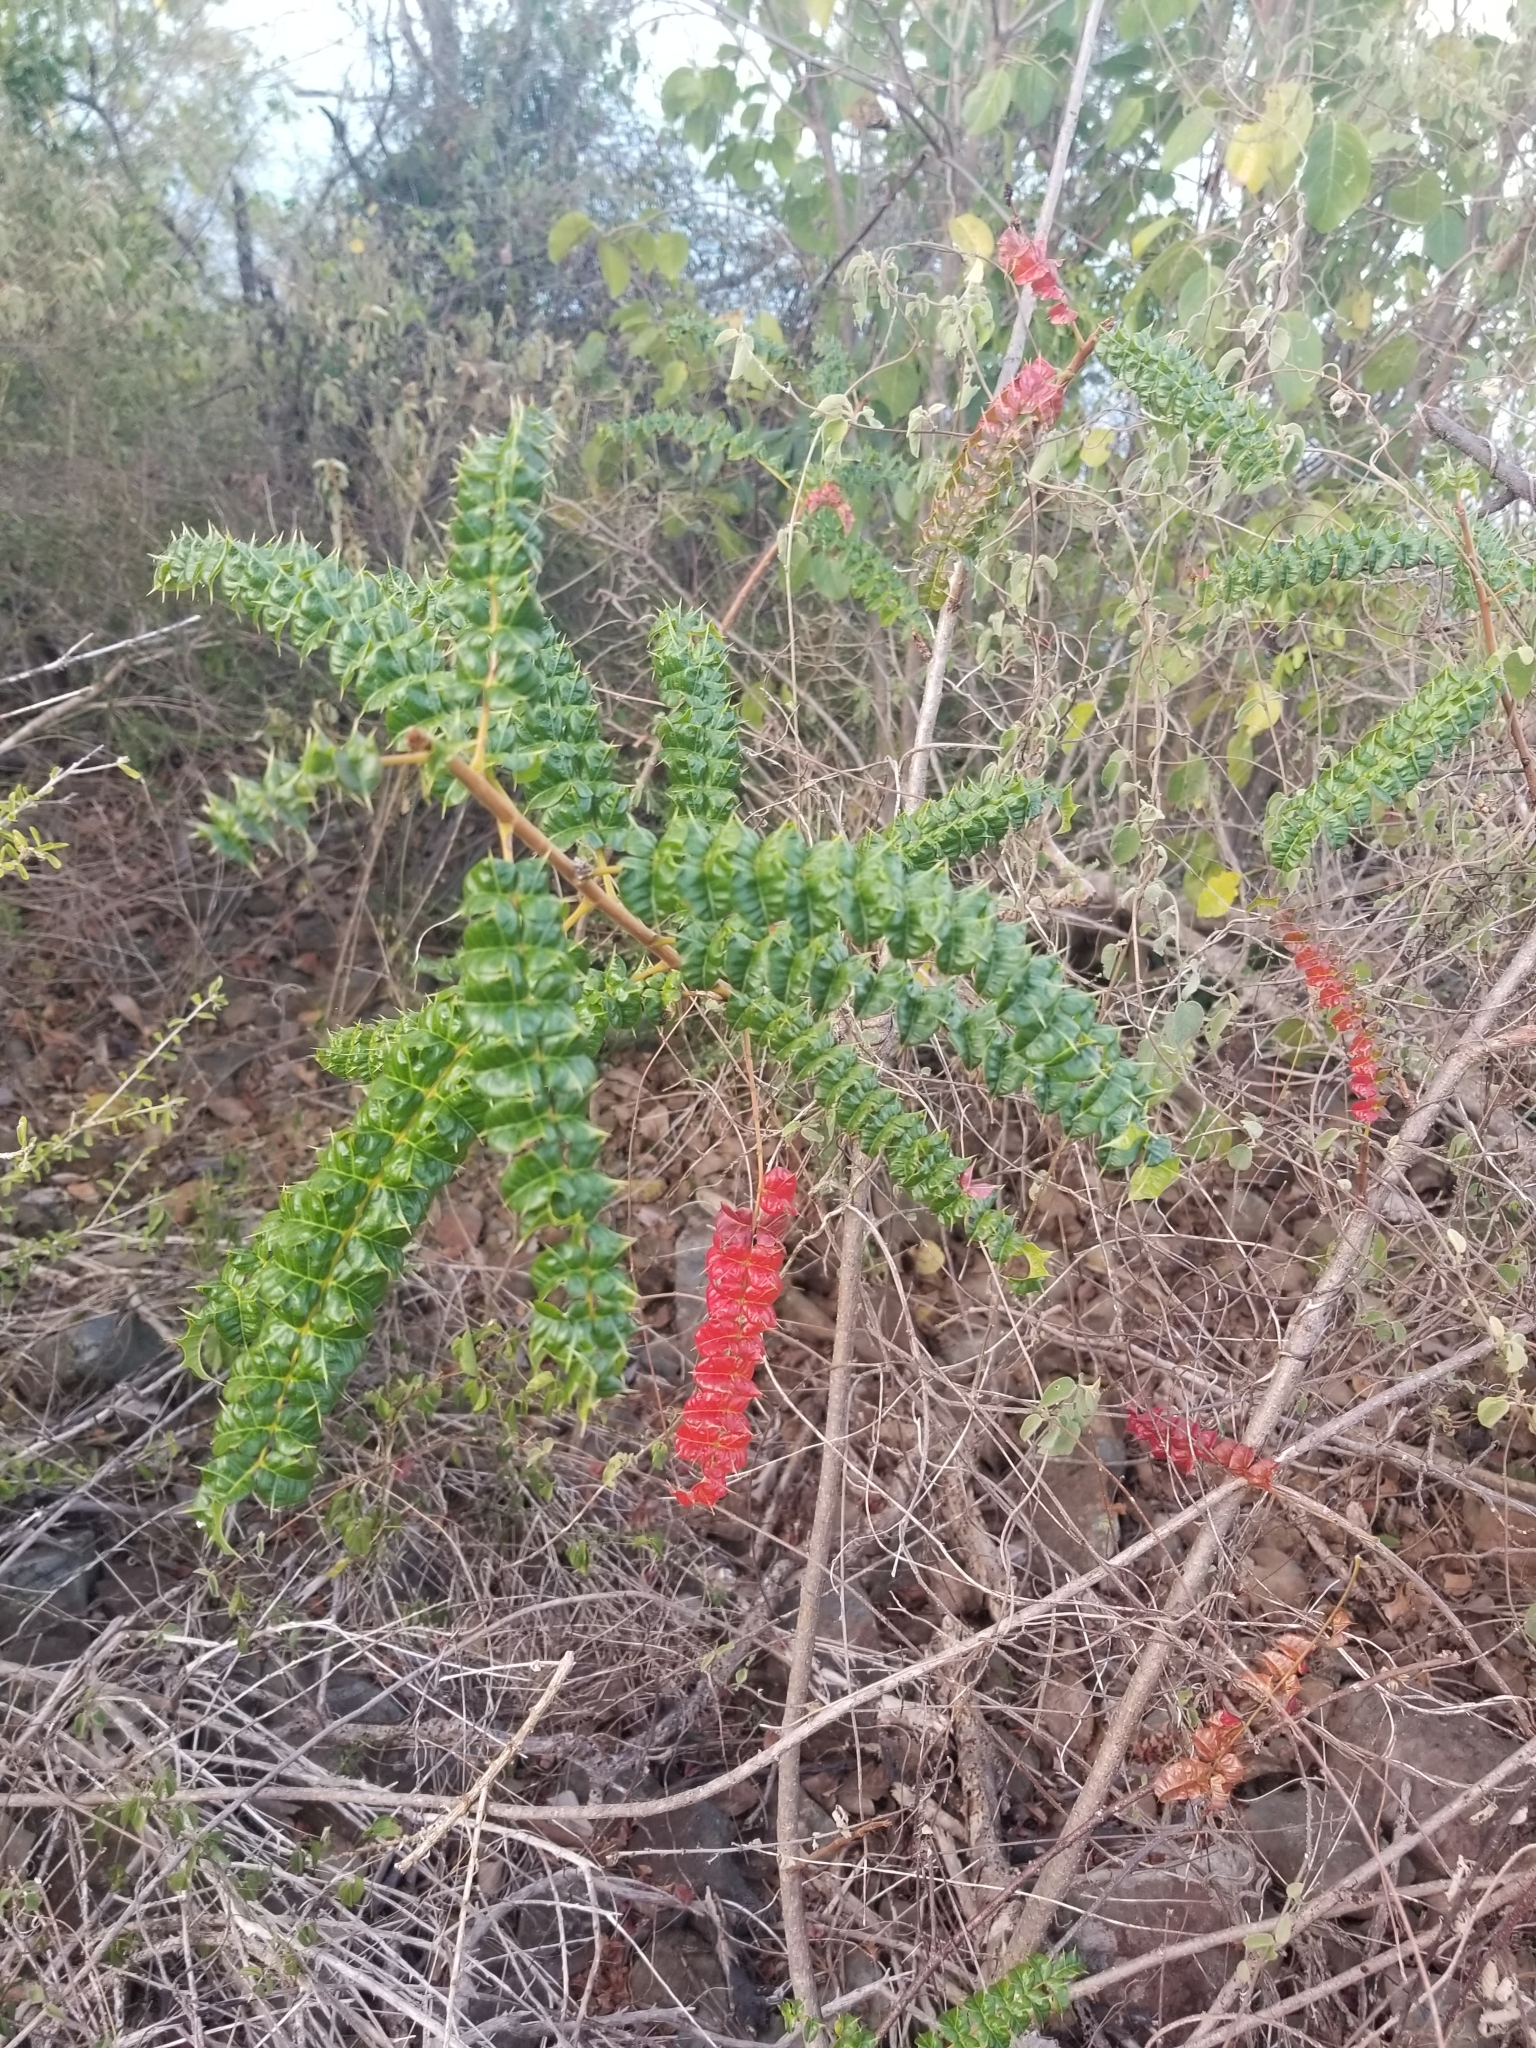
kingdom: Plantae
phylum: Tracheophyta
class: Magnoliopsida
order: Sapindales
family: Anacardiaceae
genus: Comocladia
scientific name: Comocladia dodonaea
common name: Poison ash
